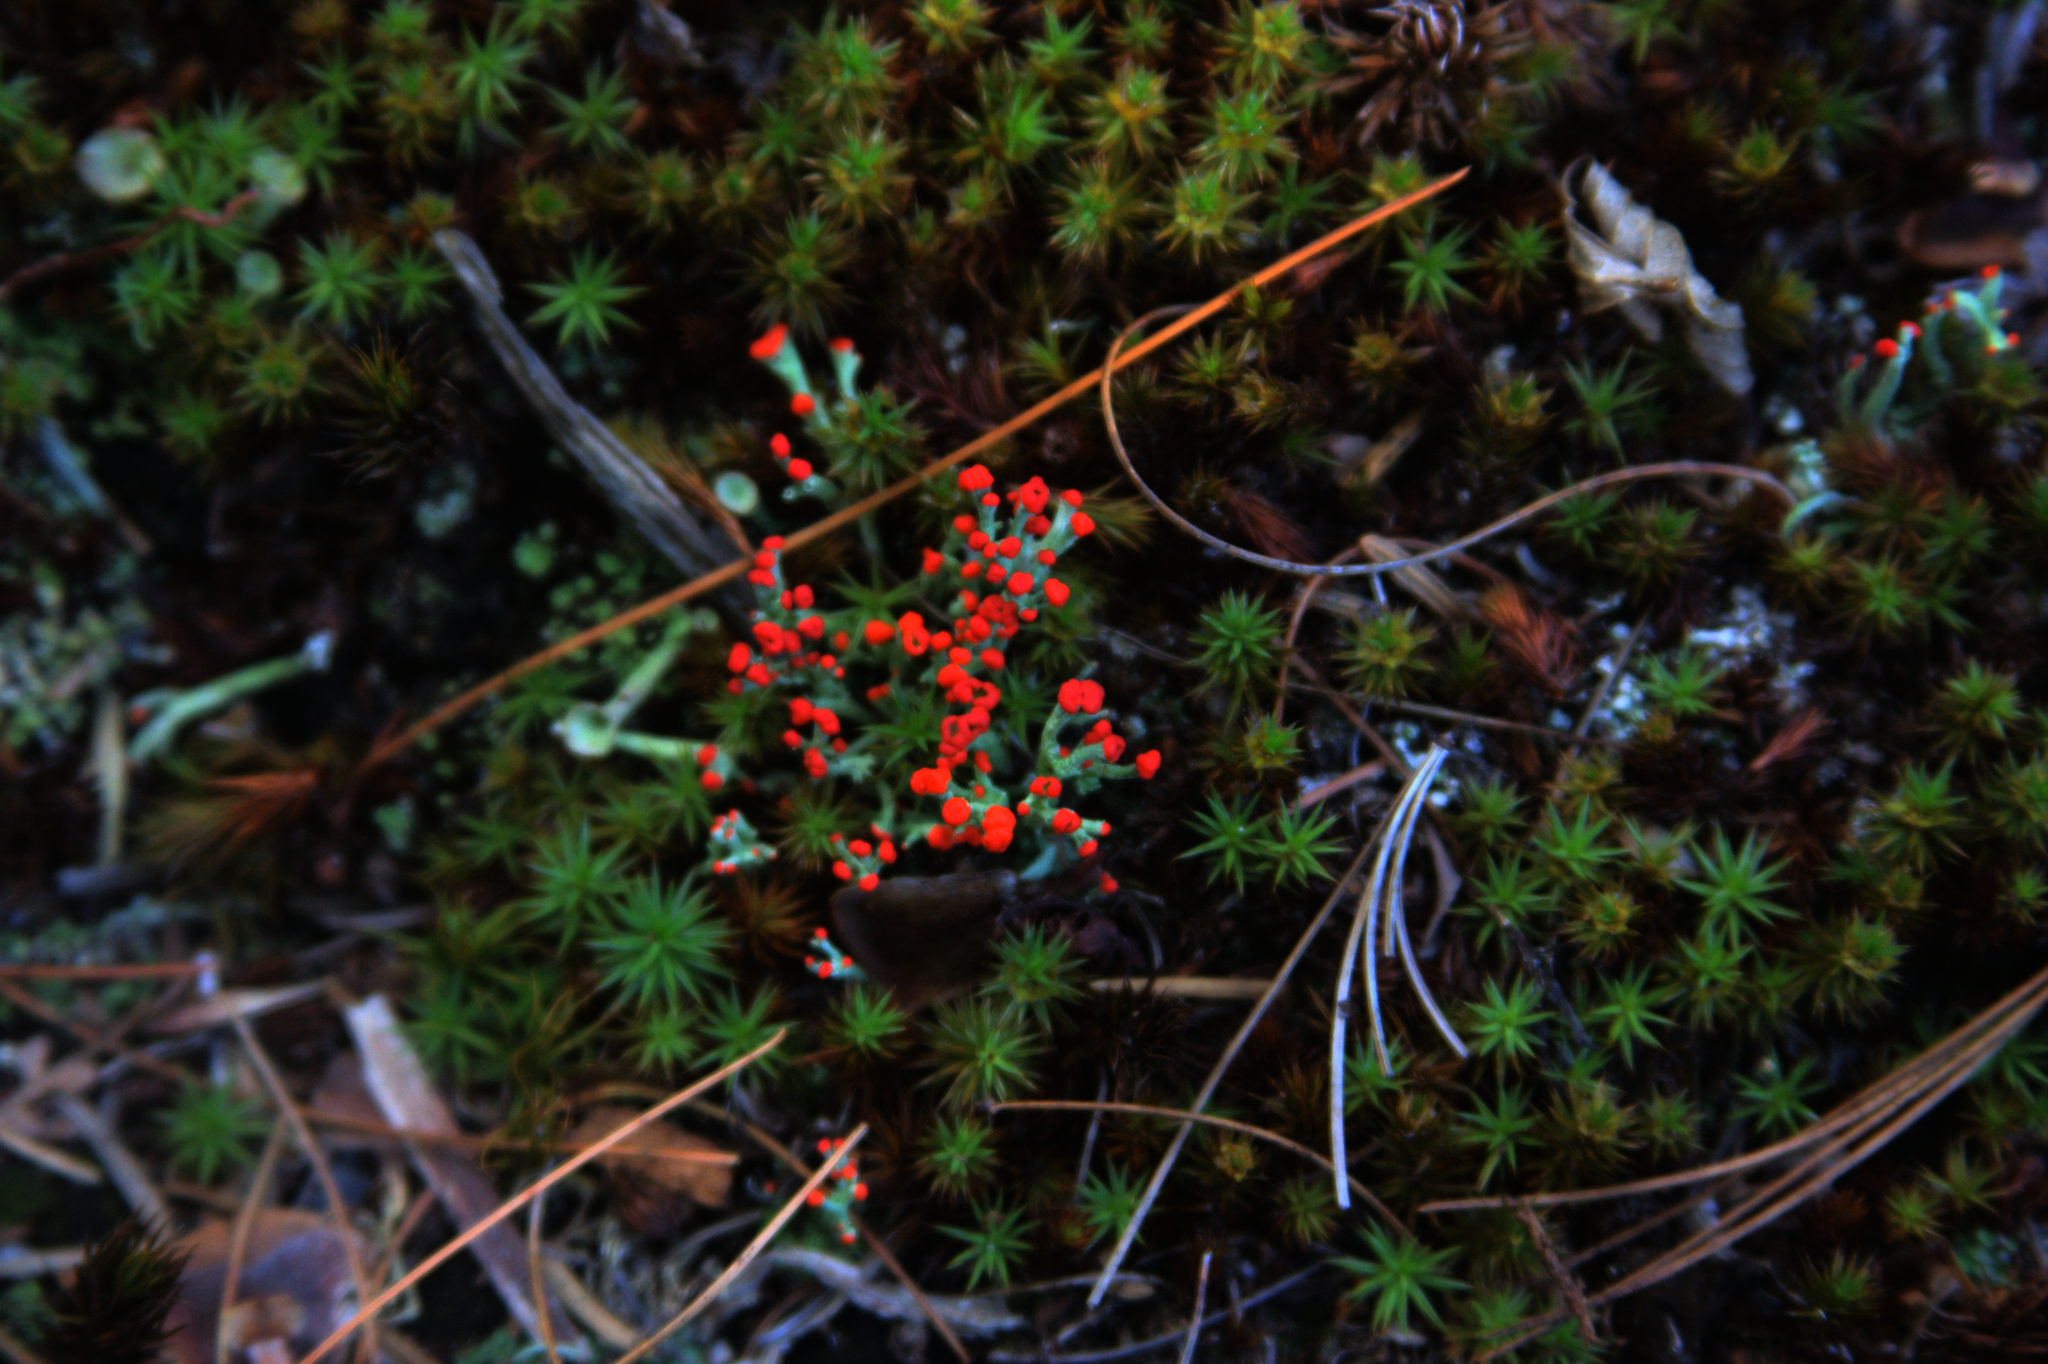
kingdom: Fungi
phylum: Ascomycota
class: Lecanoromycetes
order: Lecanorales
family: Cladoniaceae
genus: Cladonia
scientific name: Cladonia cristatella
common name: British soldier lichen
